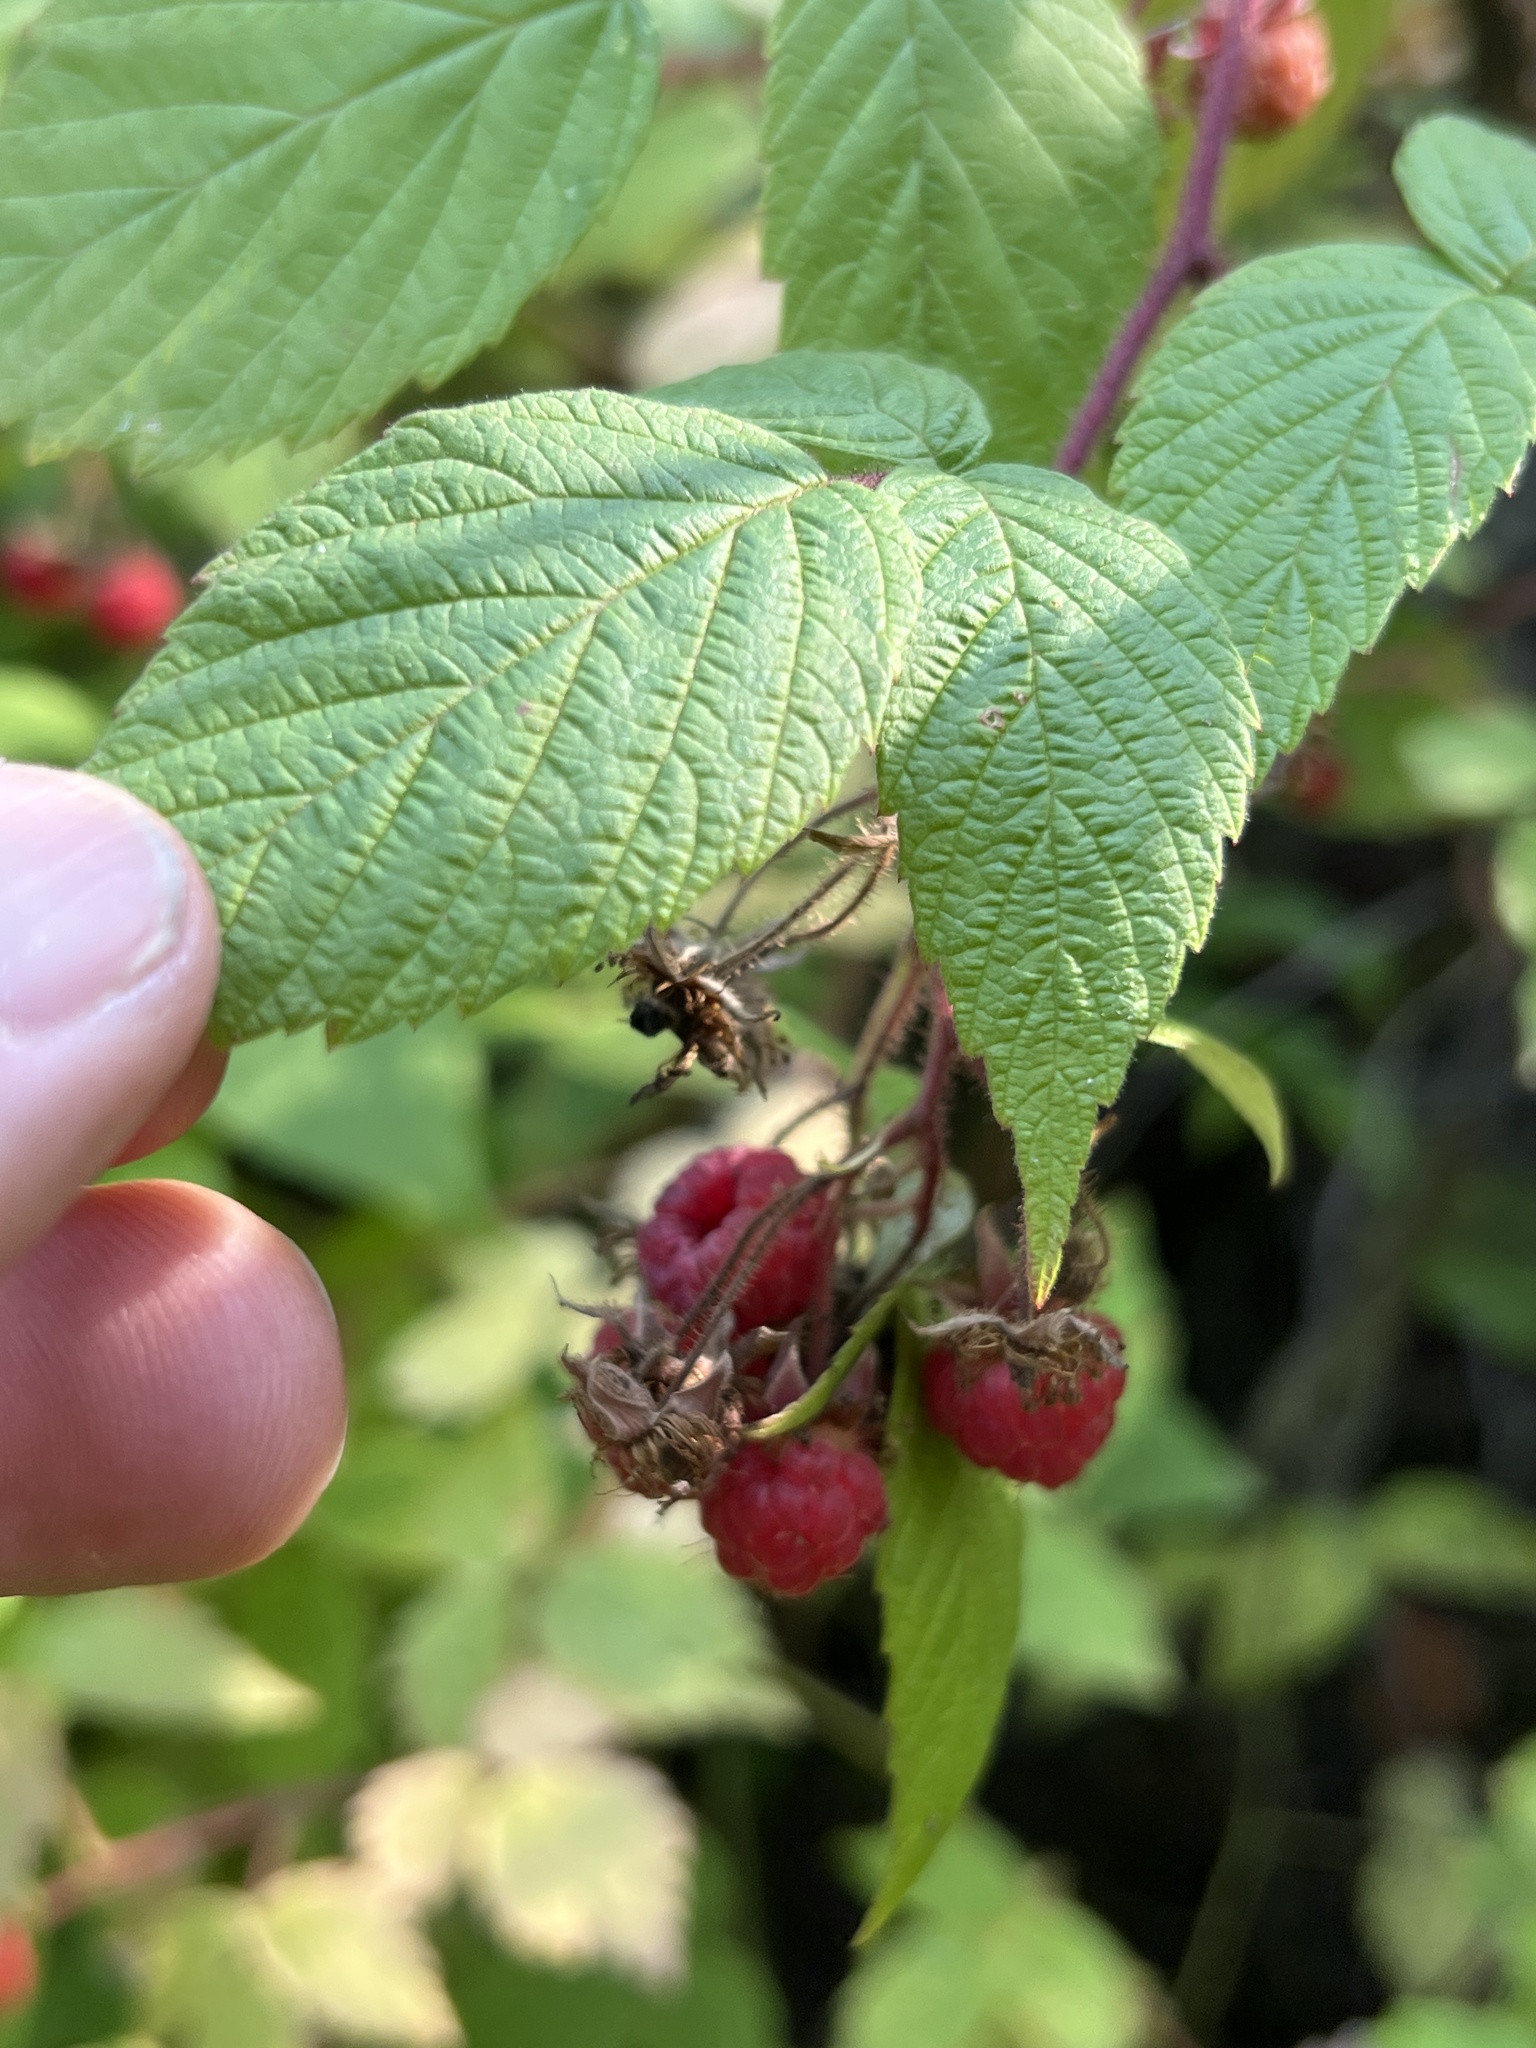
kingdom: Plantae
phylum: Tracheophyta
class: Magnoliopsida
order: Rosales
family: Rosaceae
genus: Rubus
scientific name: Rubus idaeus
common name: Raspberry
